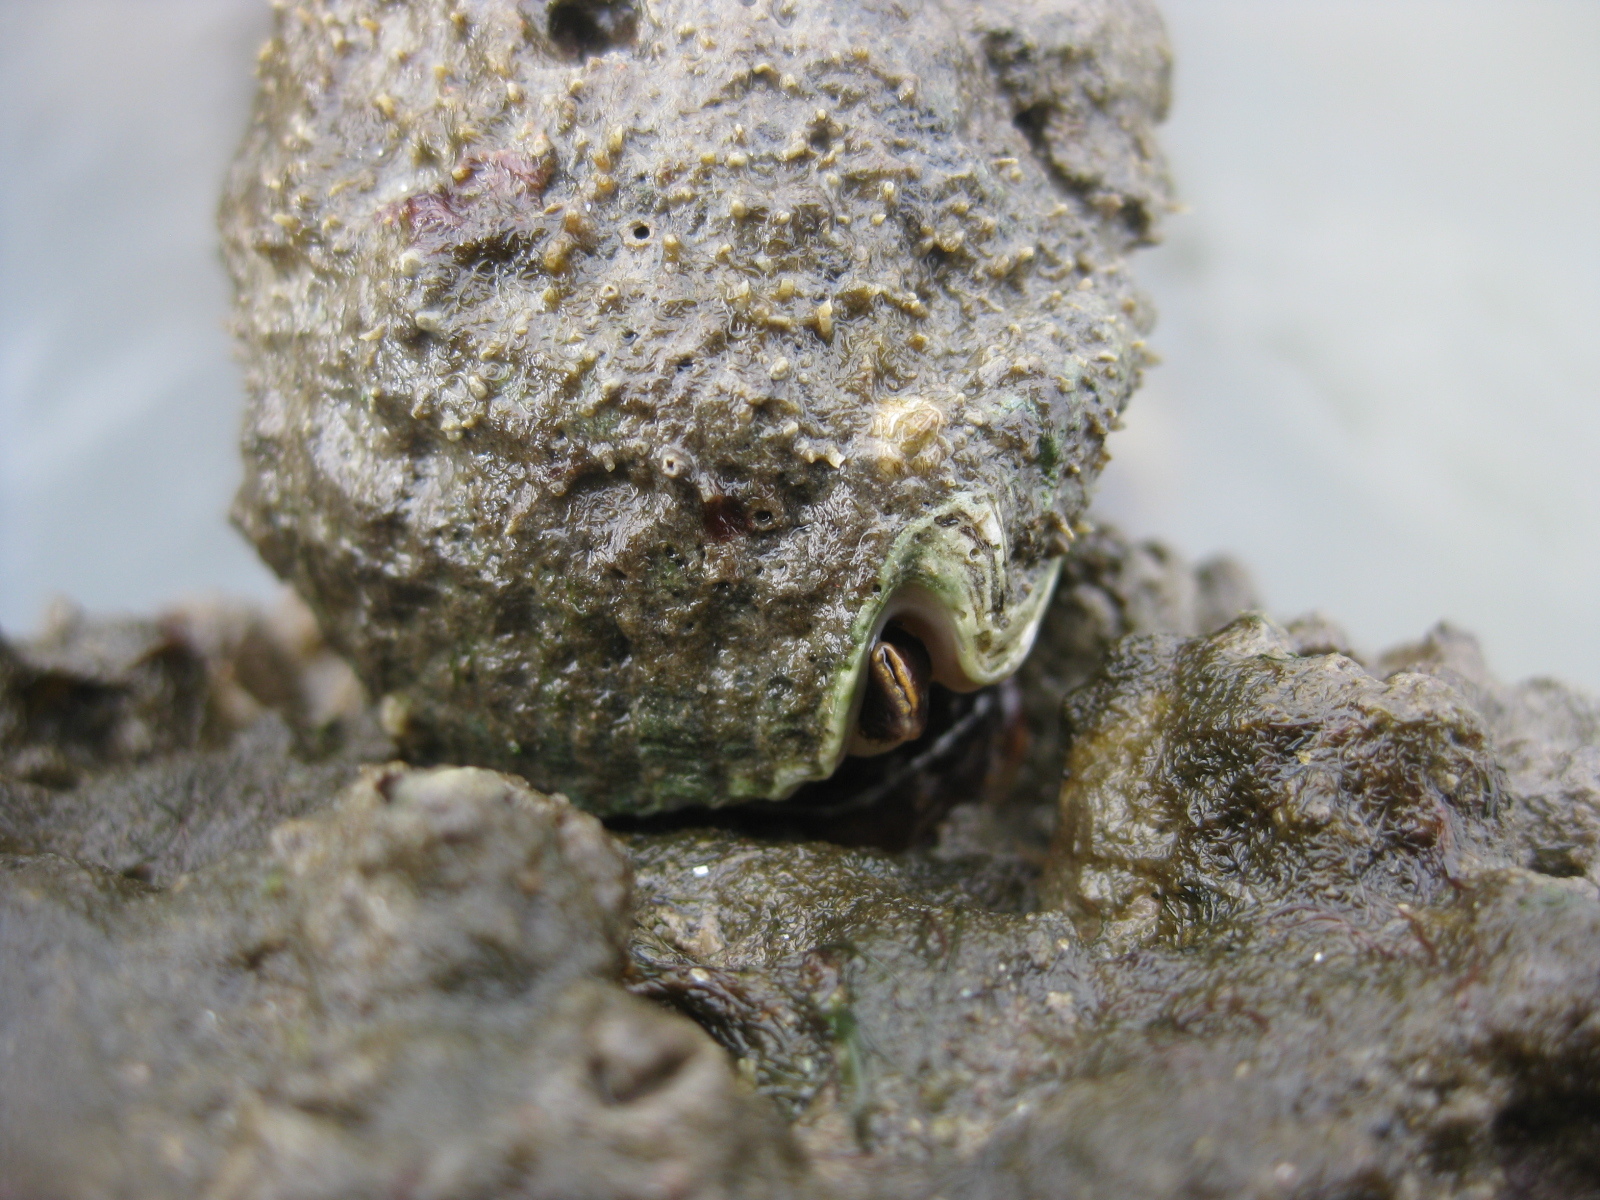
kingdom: Animalia
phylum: Mollusca
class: Gastropoda
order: Neogastropoda
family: Muricidae
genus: Dicathais
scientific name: Dicathais orbita
